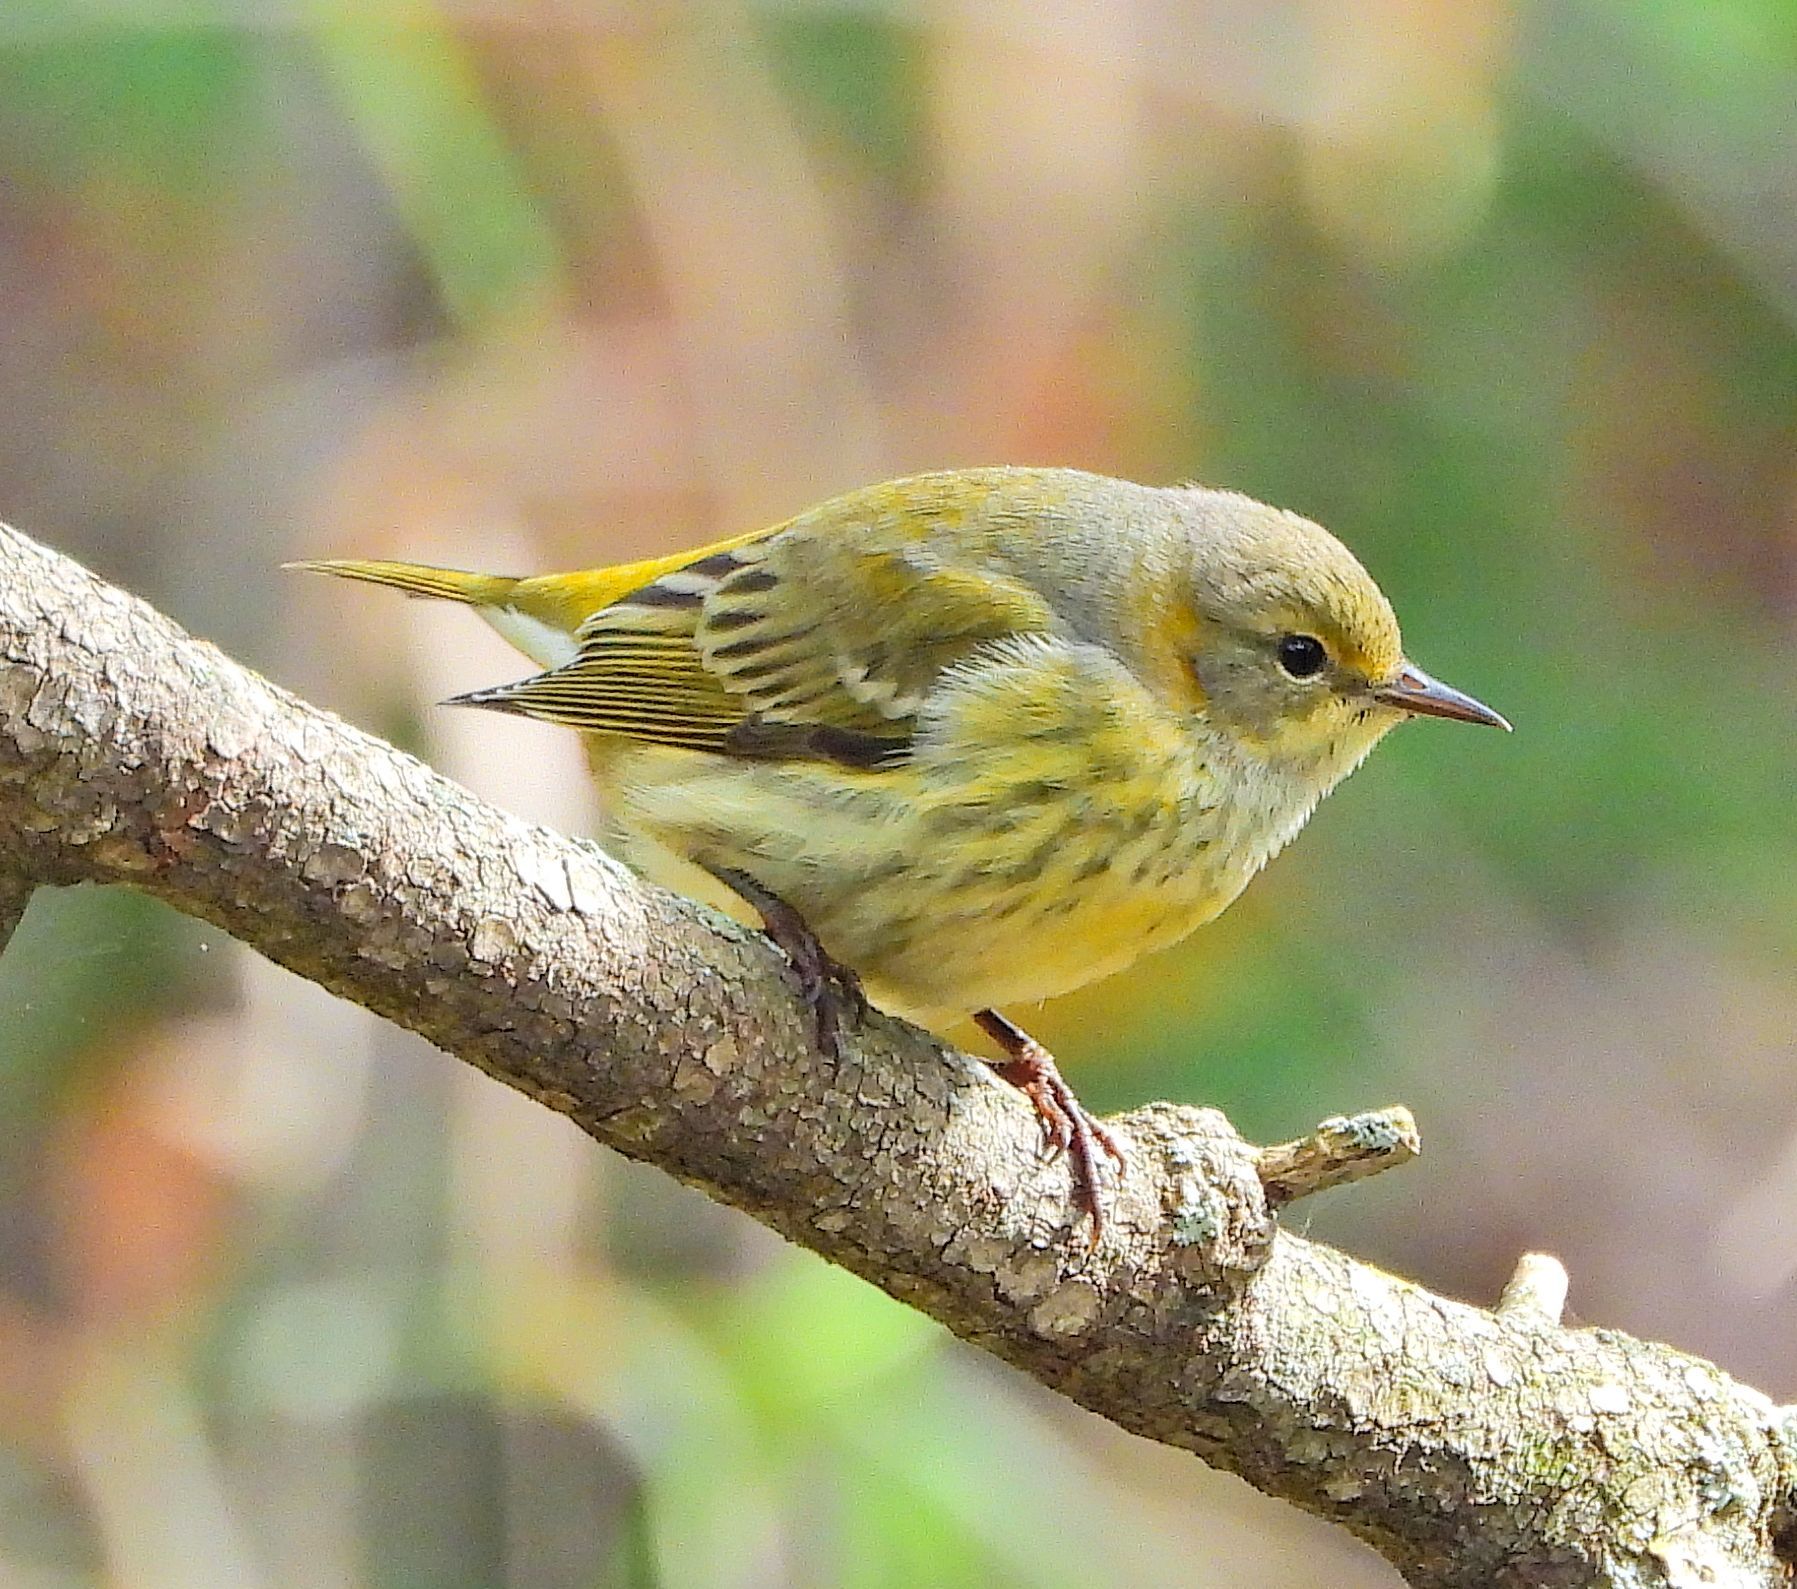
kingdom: Animalia
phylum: Chordata
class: Aves
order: Passeriformes
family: Parulidae
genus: Setophaga
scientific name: Setophaga tigrina
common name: Cape may warbler
